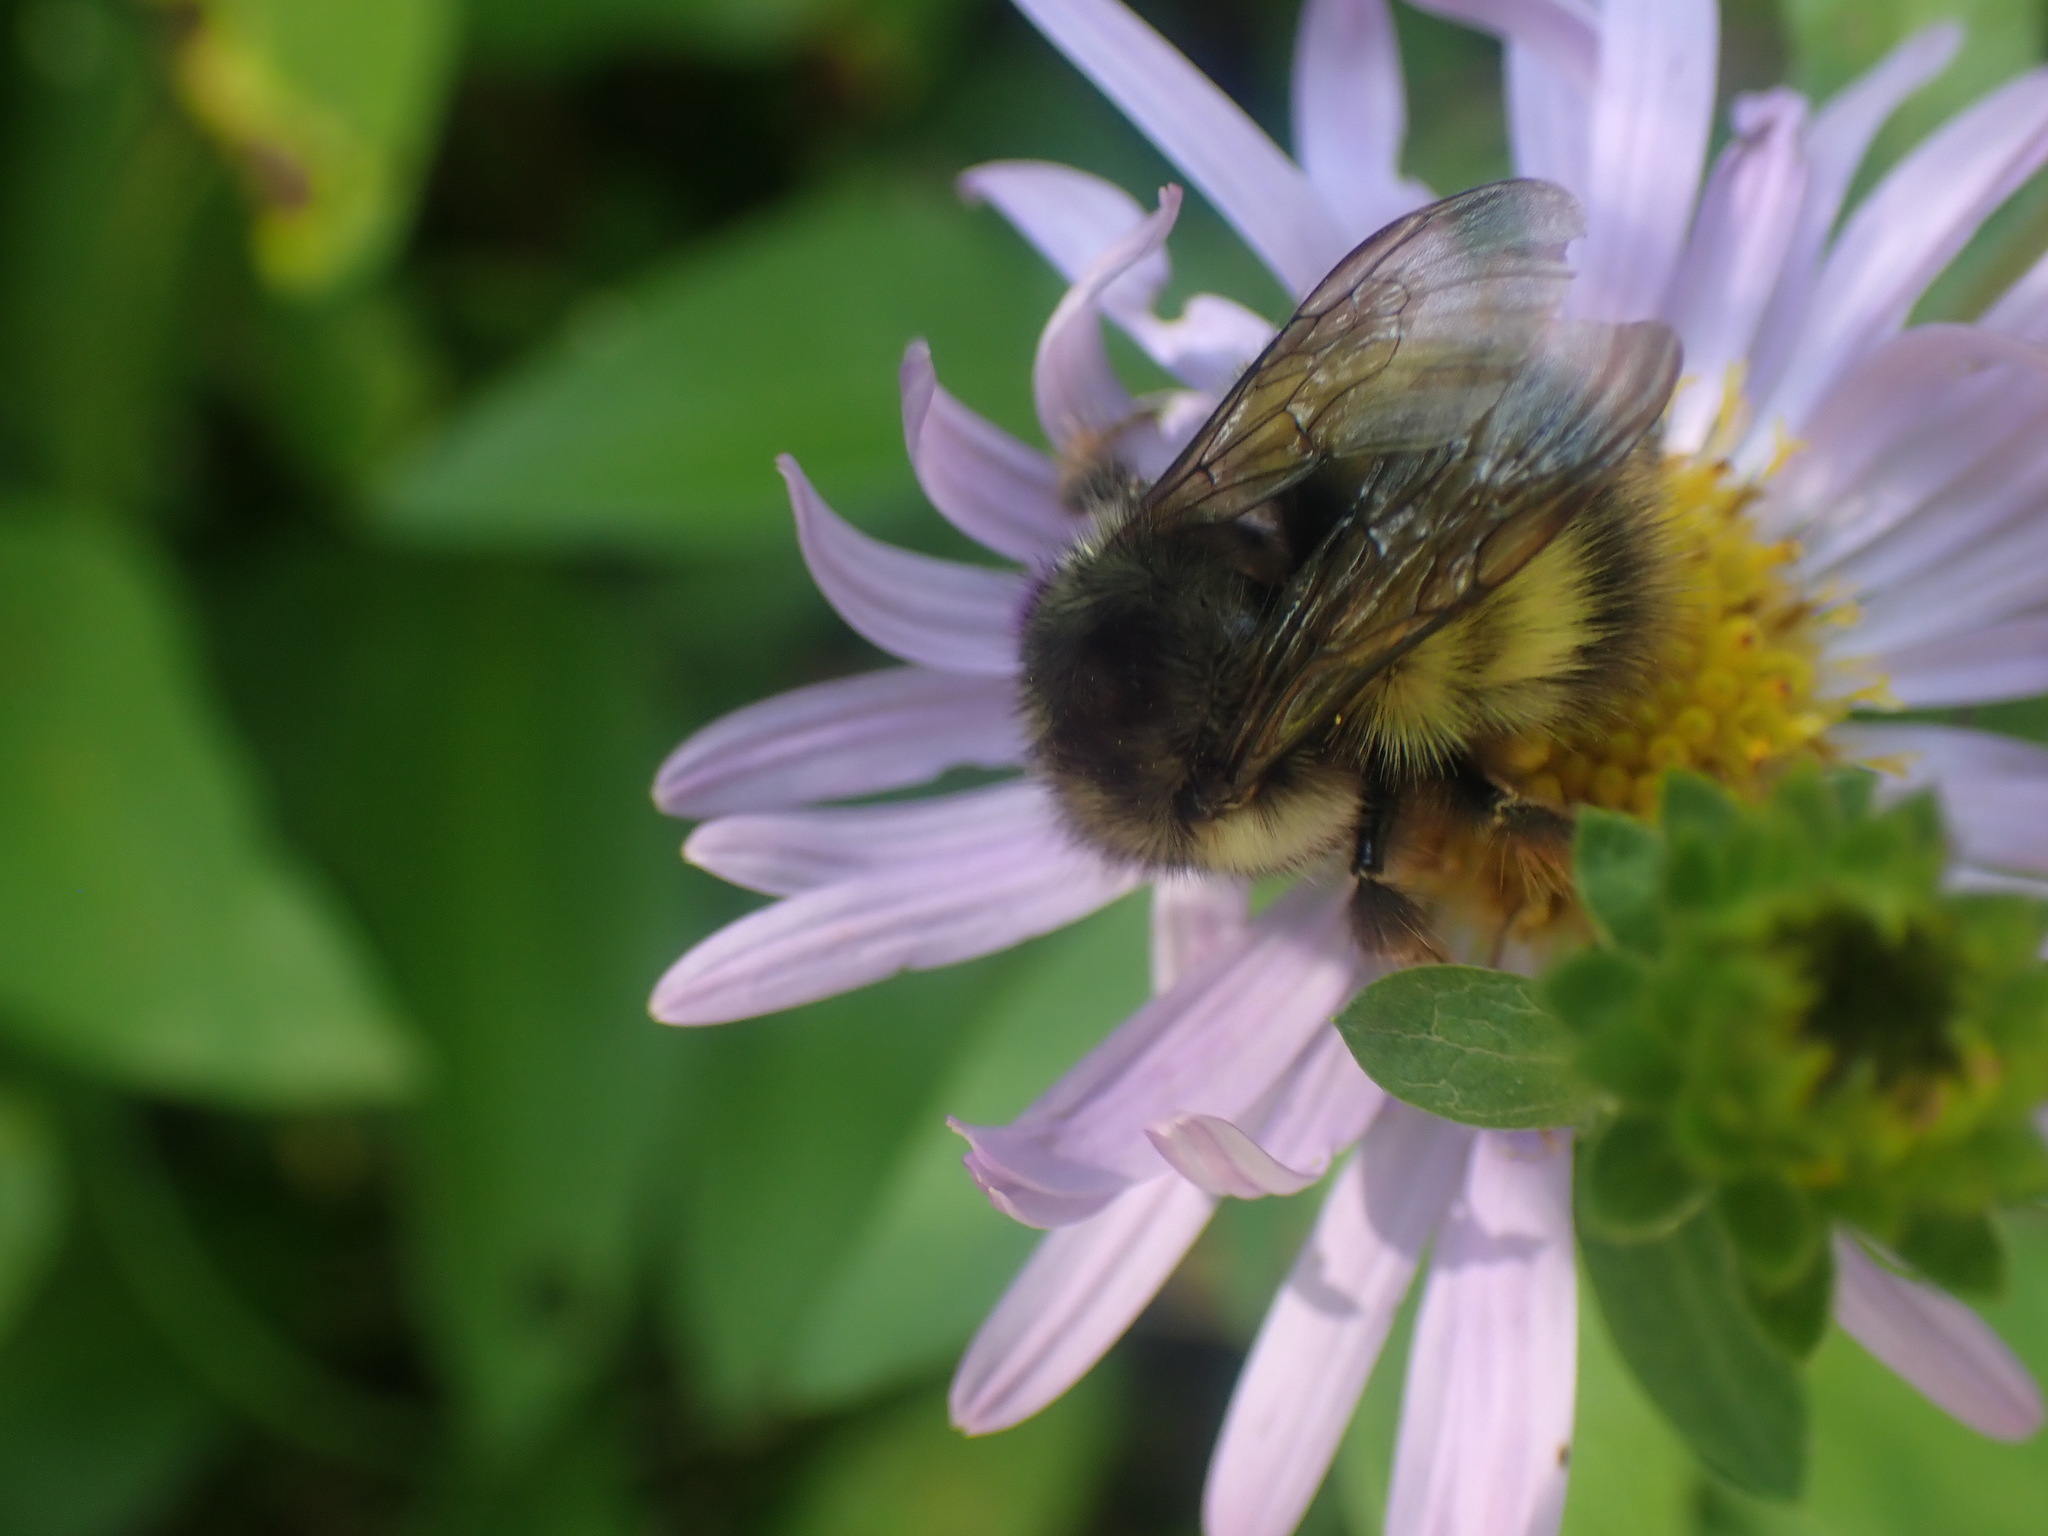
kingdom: Animalia
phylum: Arthropoda
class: Insecta
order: Hymenoptera
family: Apidae
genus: Bombus
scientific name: Bombus sitkensis
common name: Sitka bumble bee
